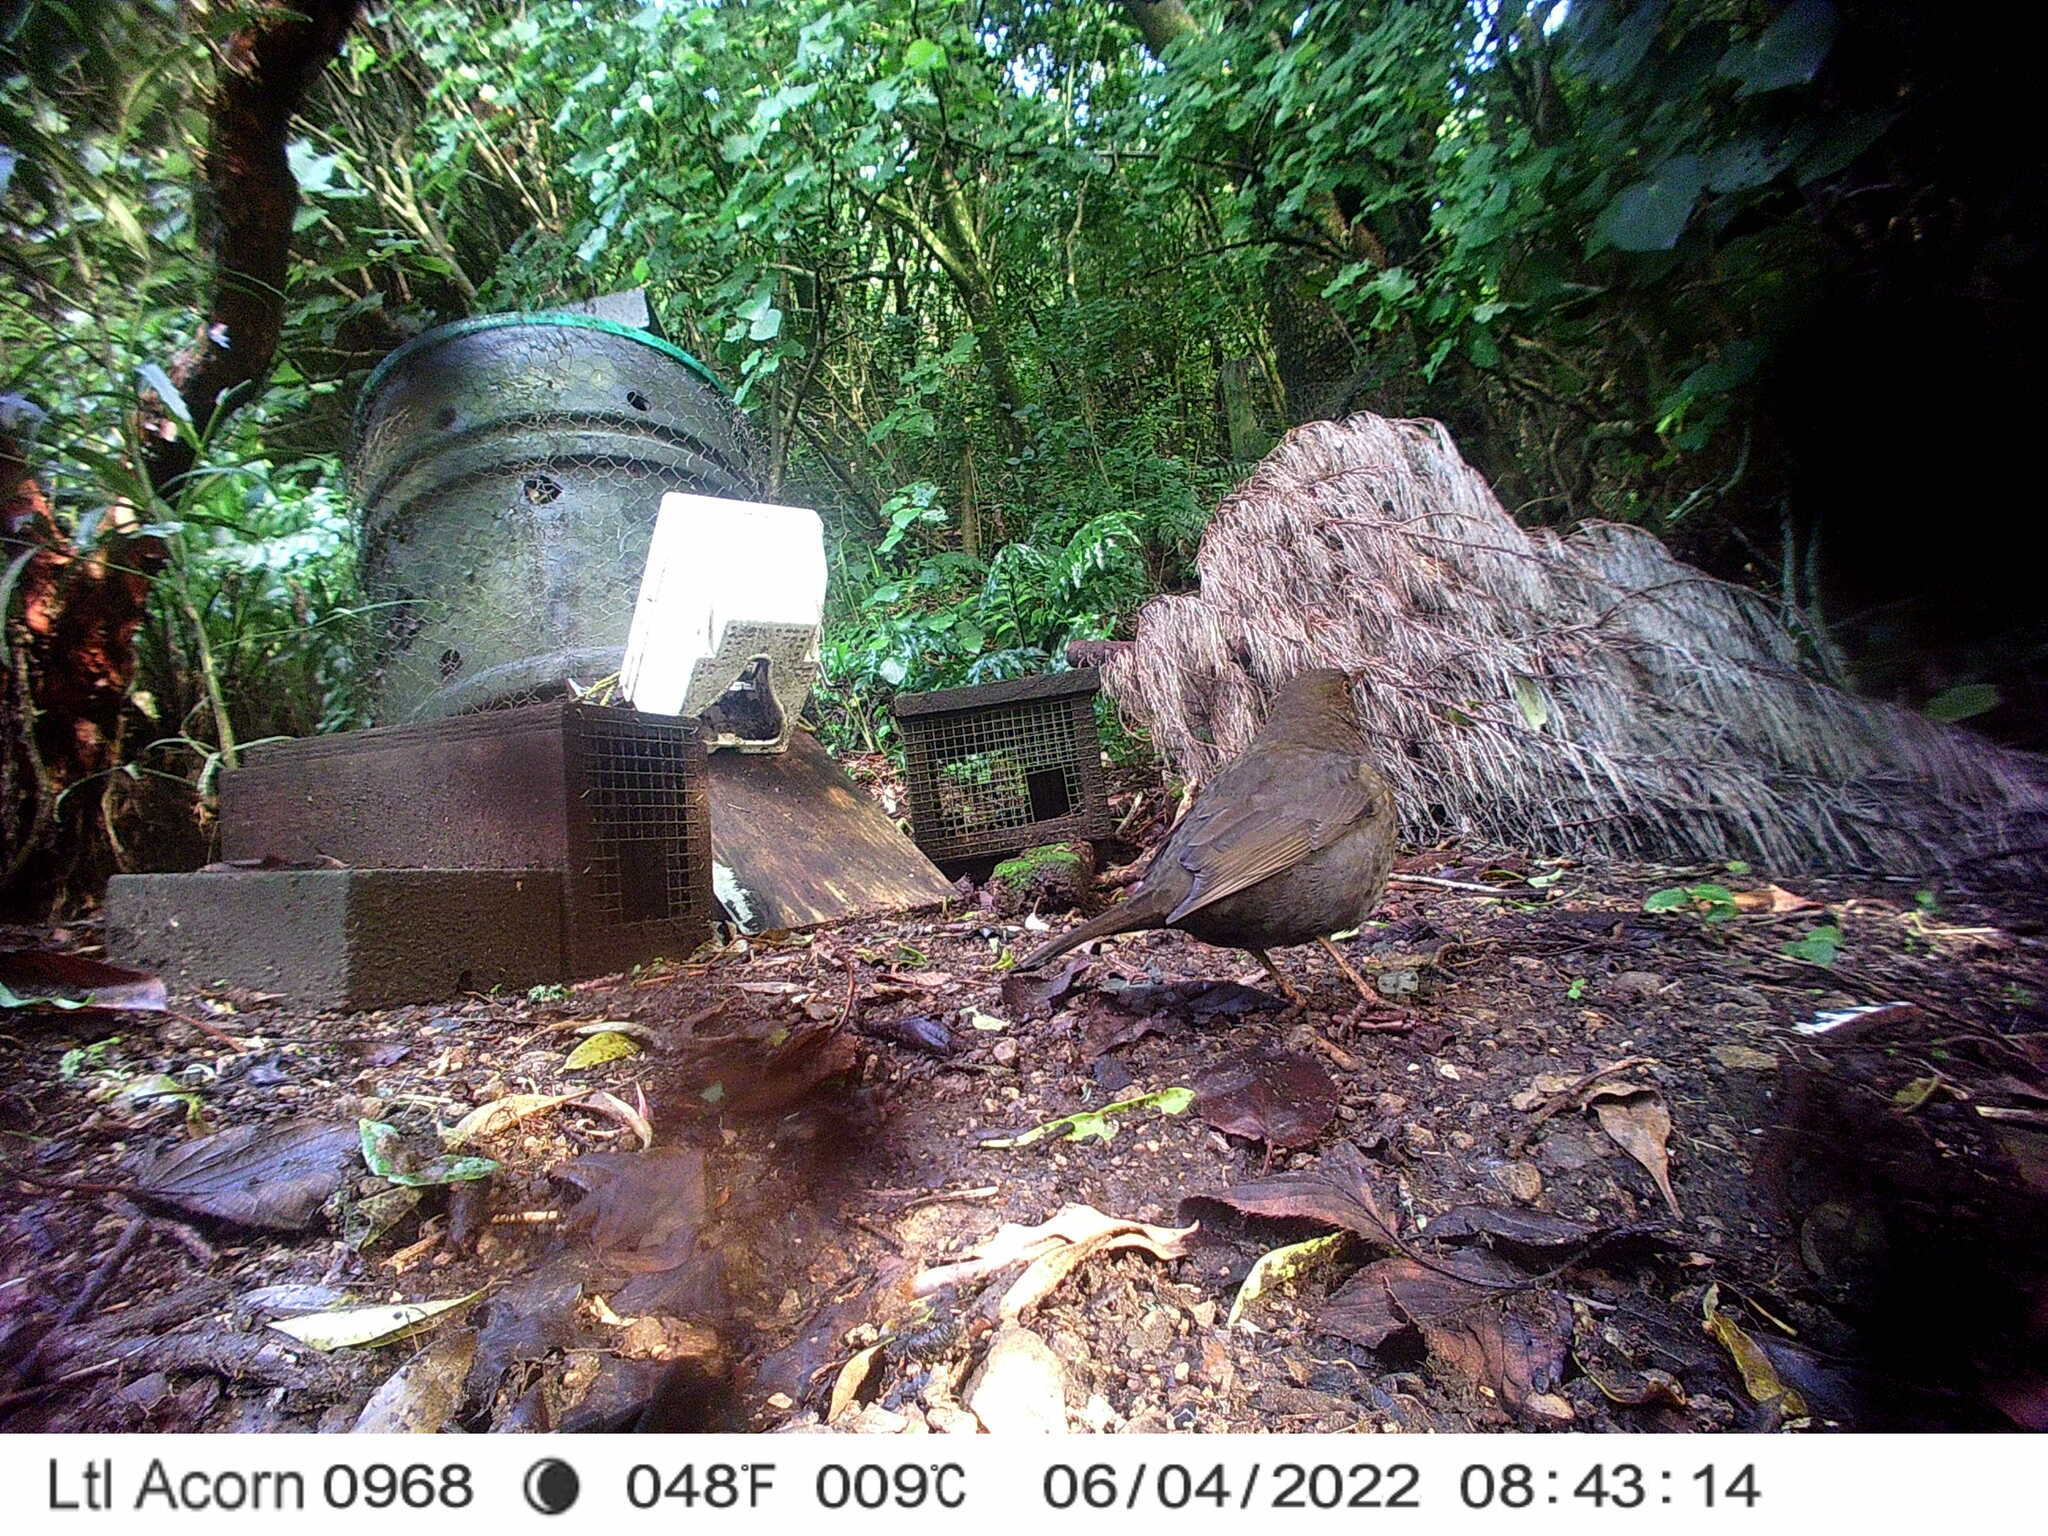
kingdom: Animalia
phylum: Chordata
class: Aves
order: Passeriformes
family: Turdidae
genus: Turdus
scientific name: Turdus merula
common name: Common blackbird
